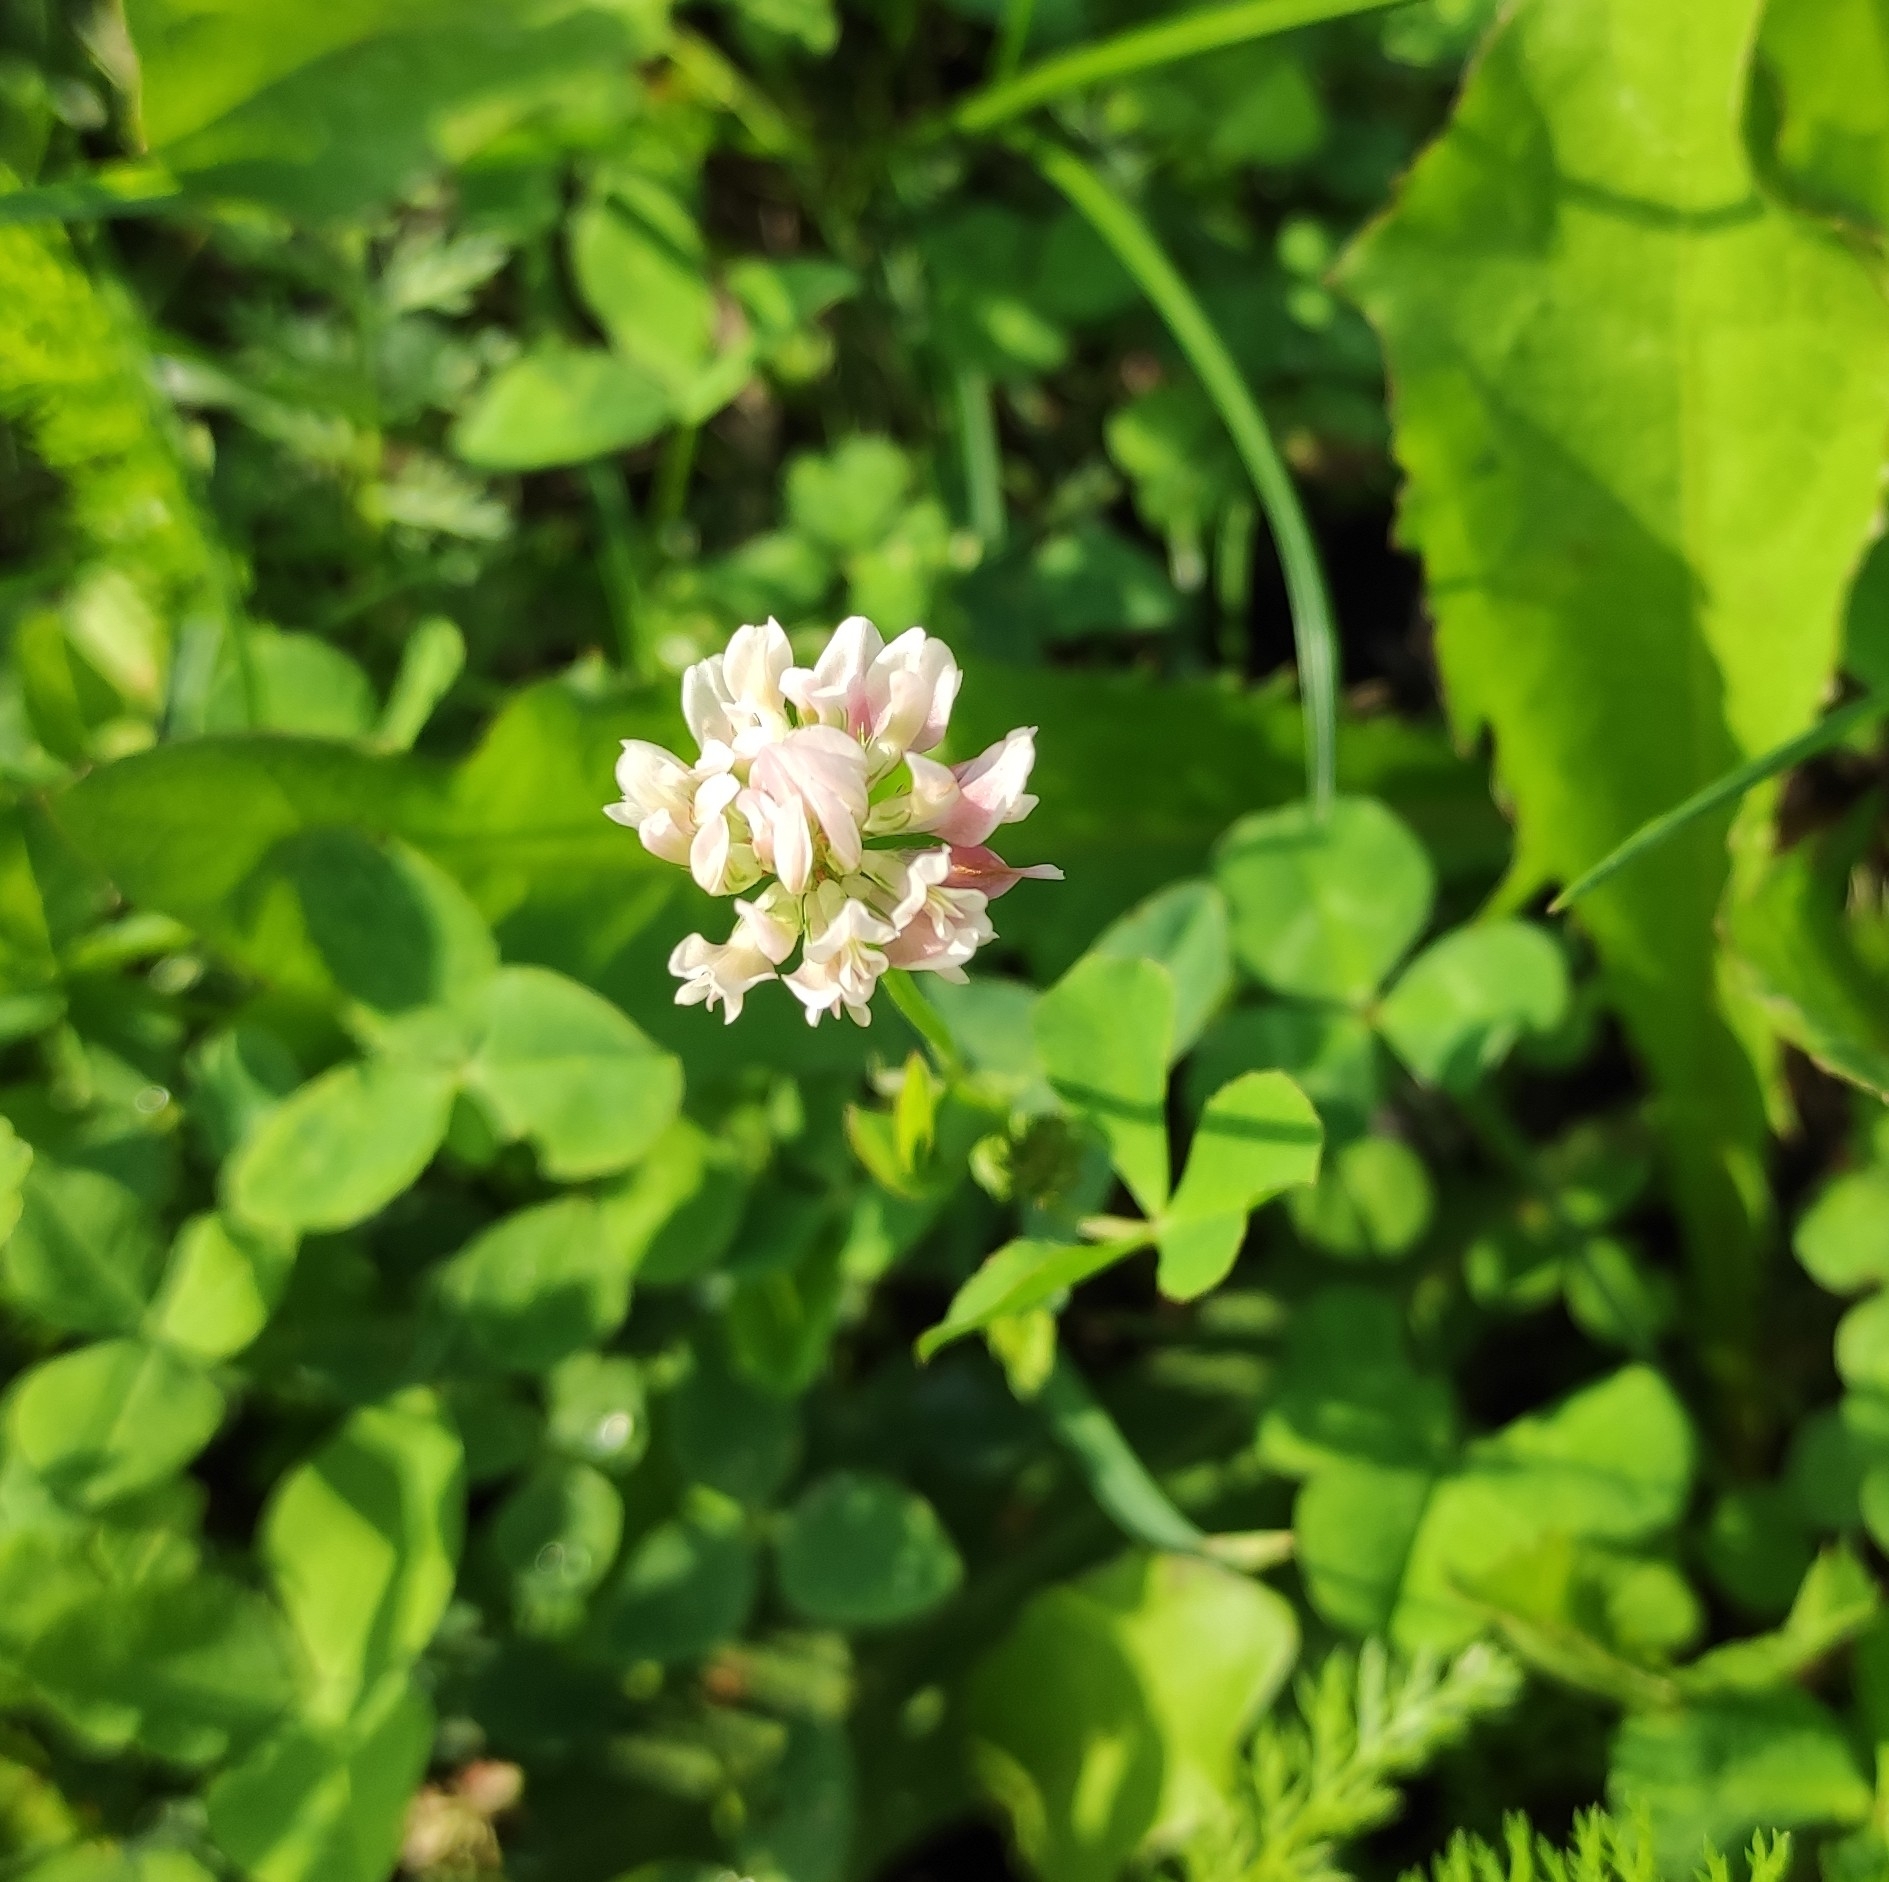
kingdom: Plantae
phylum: Tracheophyta
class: Magnoliopsida
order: Fabales
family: Fabaceae
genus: Trifolium
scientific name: Trifolium repens
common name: White clover
